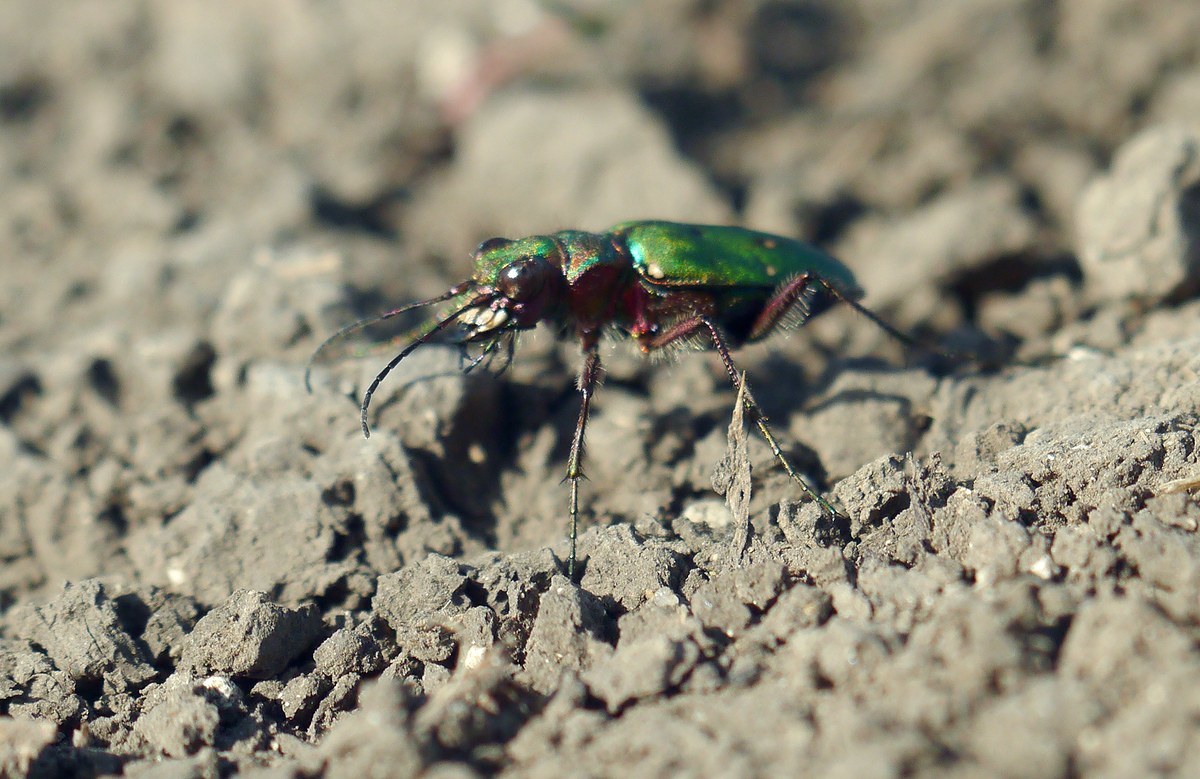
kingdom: Animalia
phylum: Arthropoda
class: Insecta
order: Coleoptera
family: Carabidae
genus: Cicindela
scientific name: Cicindela campestris
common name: Common tiger beetle
